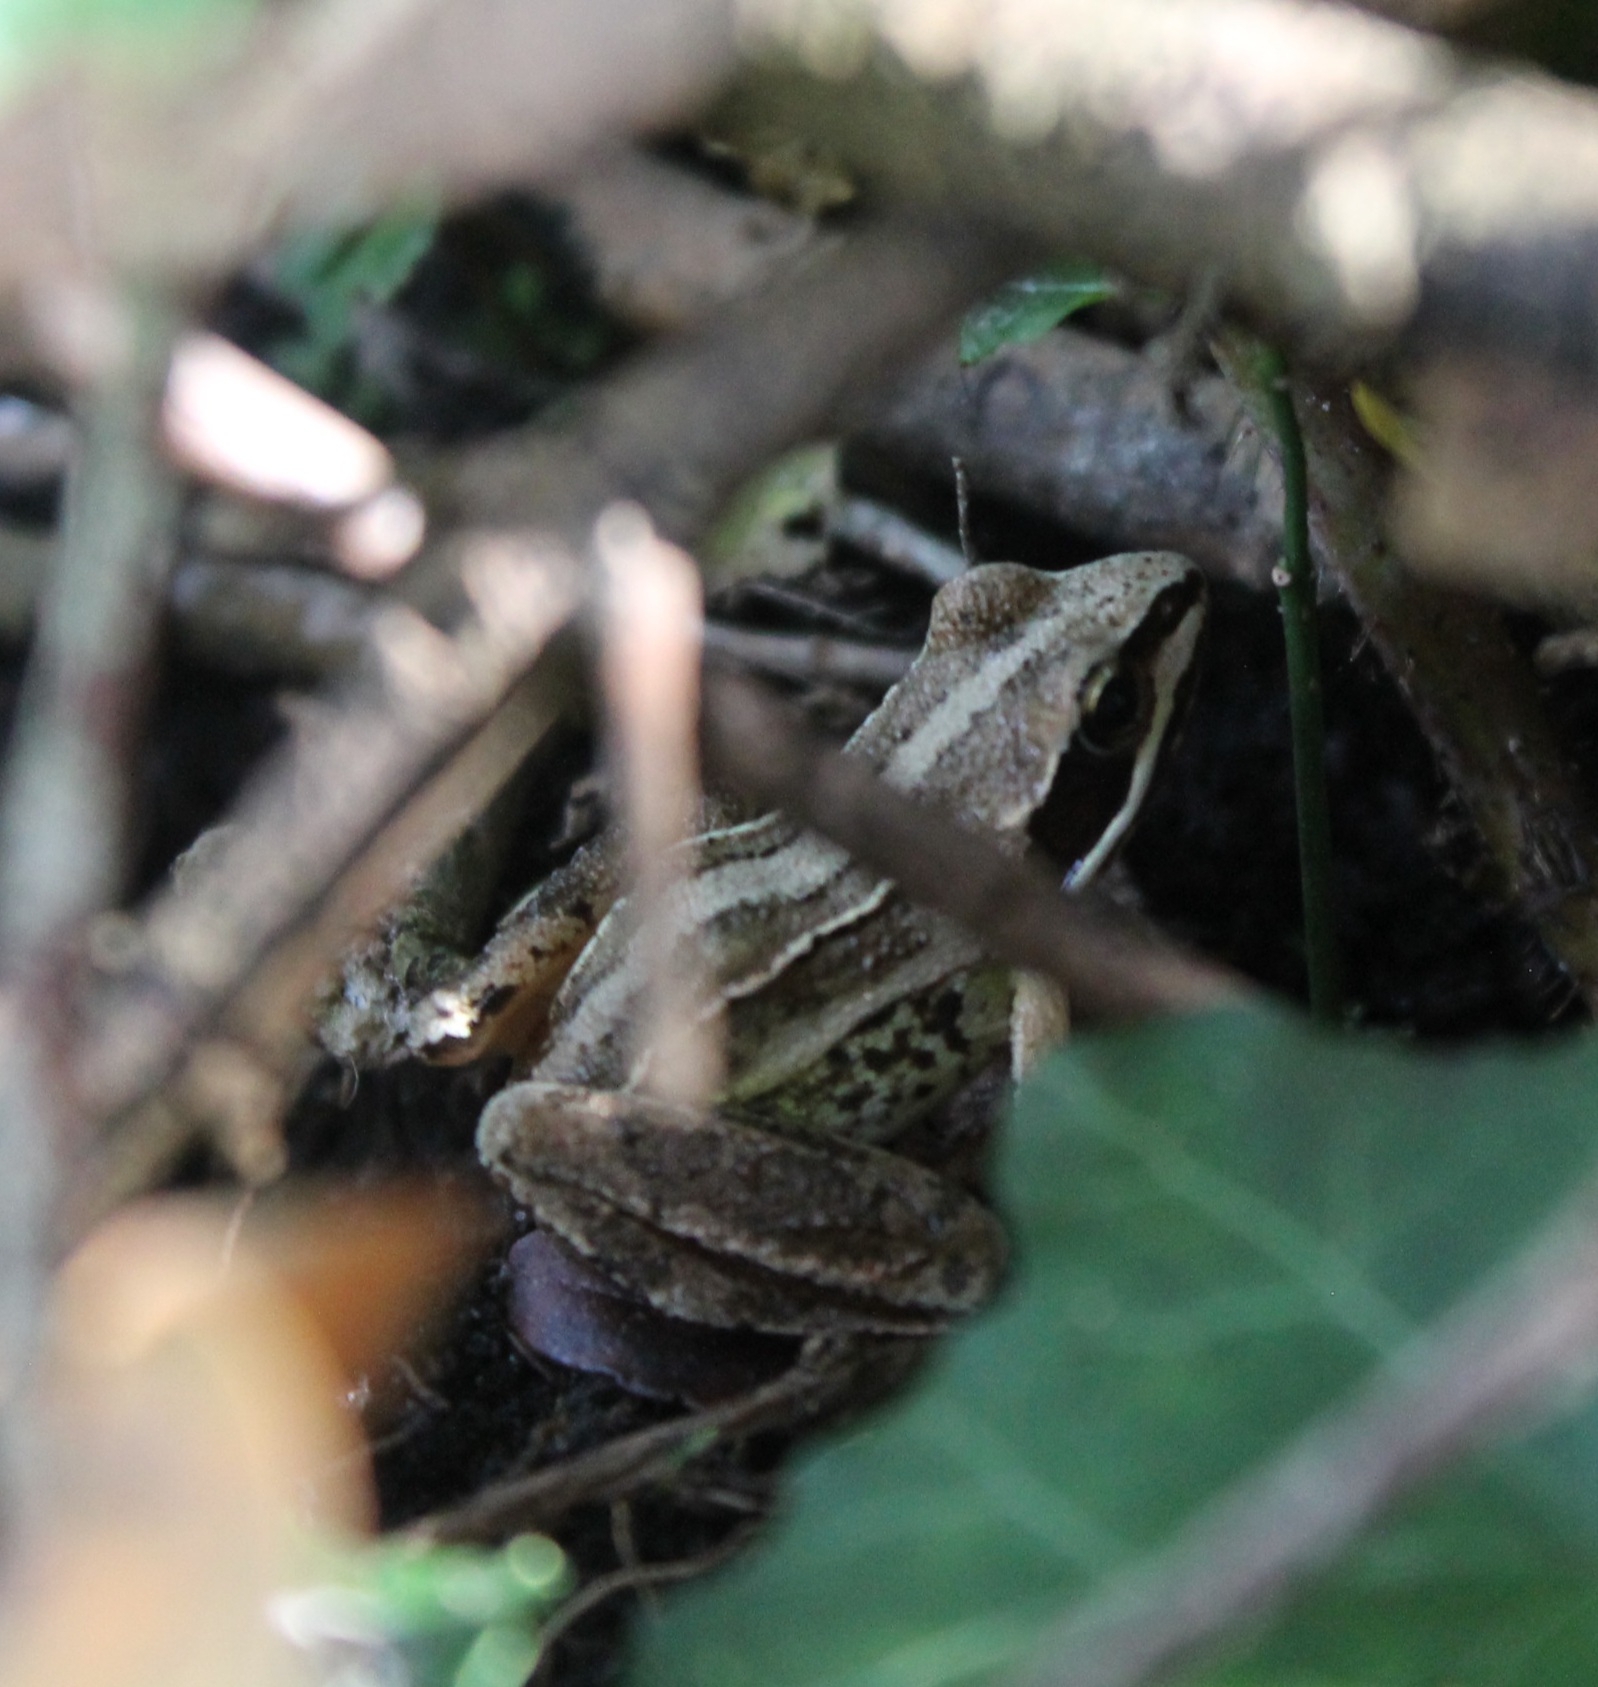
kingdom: Animalia
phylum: Chordata
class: Amphibia
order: Anura
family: Ranidae
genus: Rana
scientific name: Rana arvalis
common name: Moor frog
